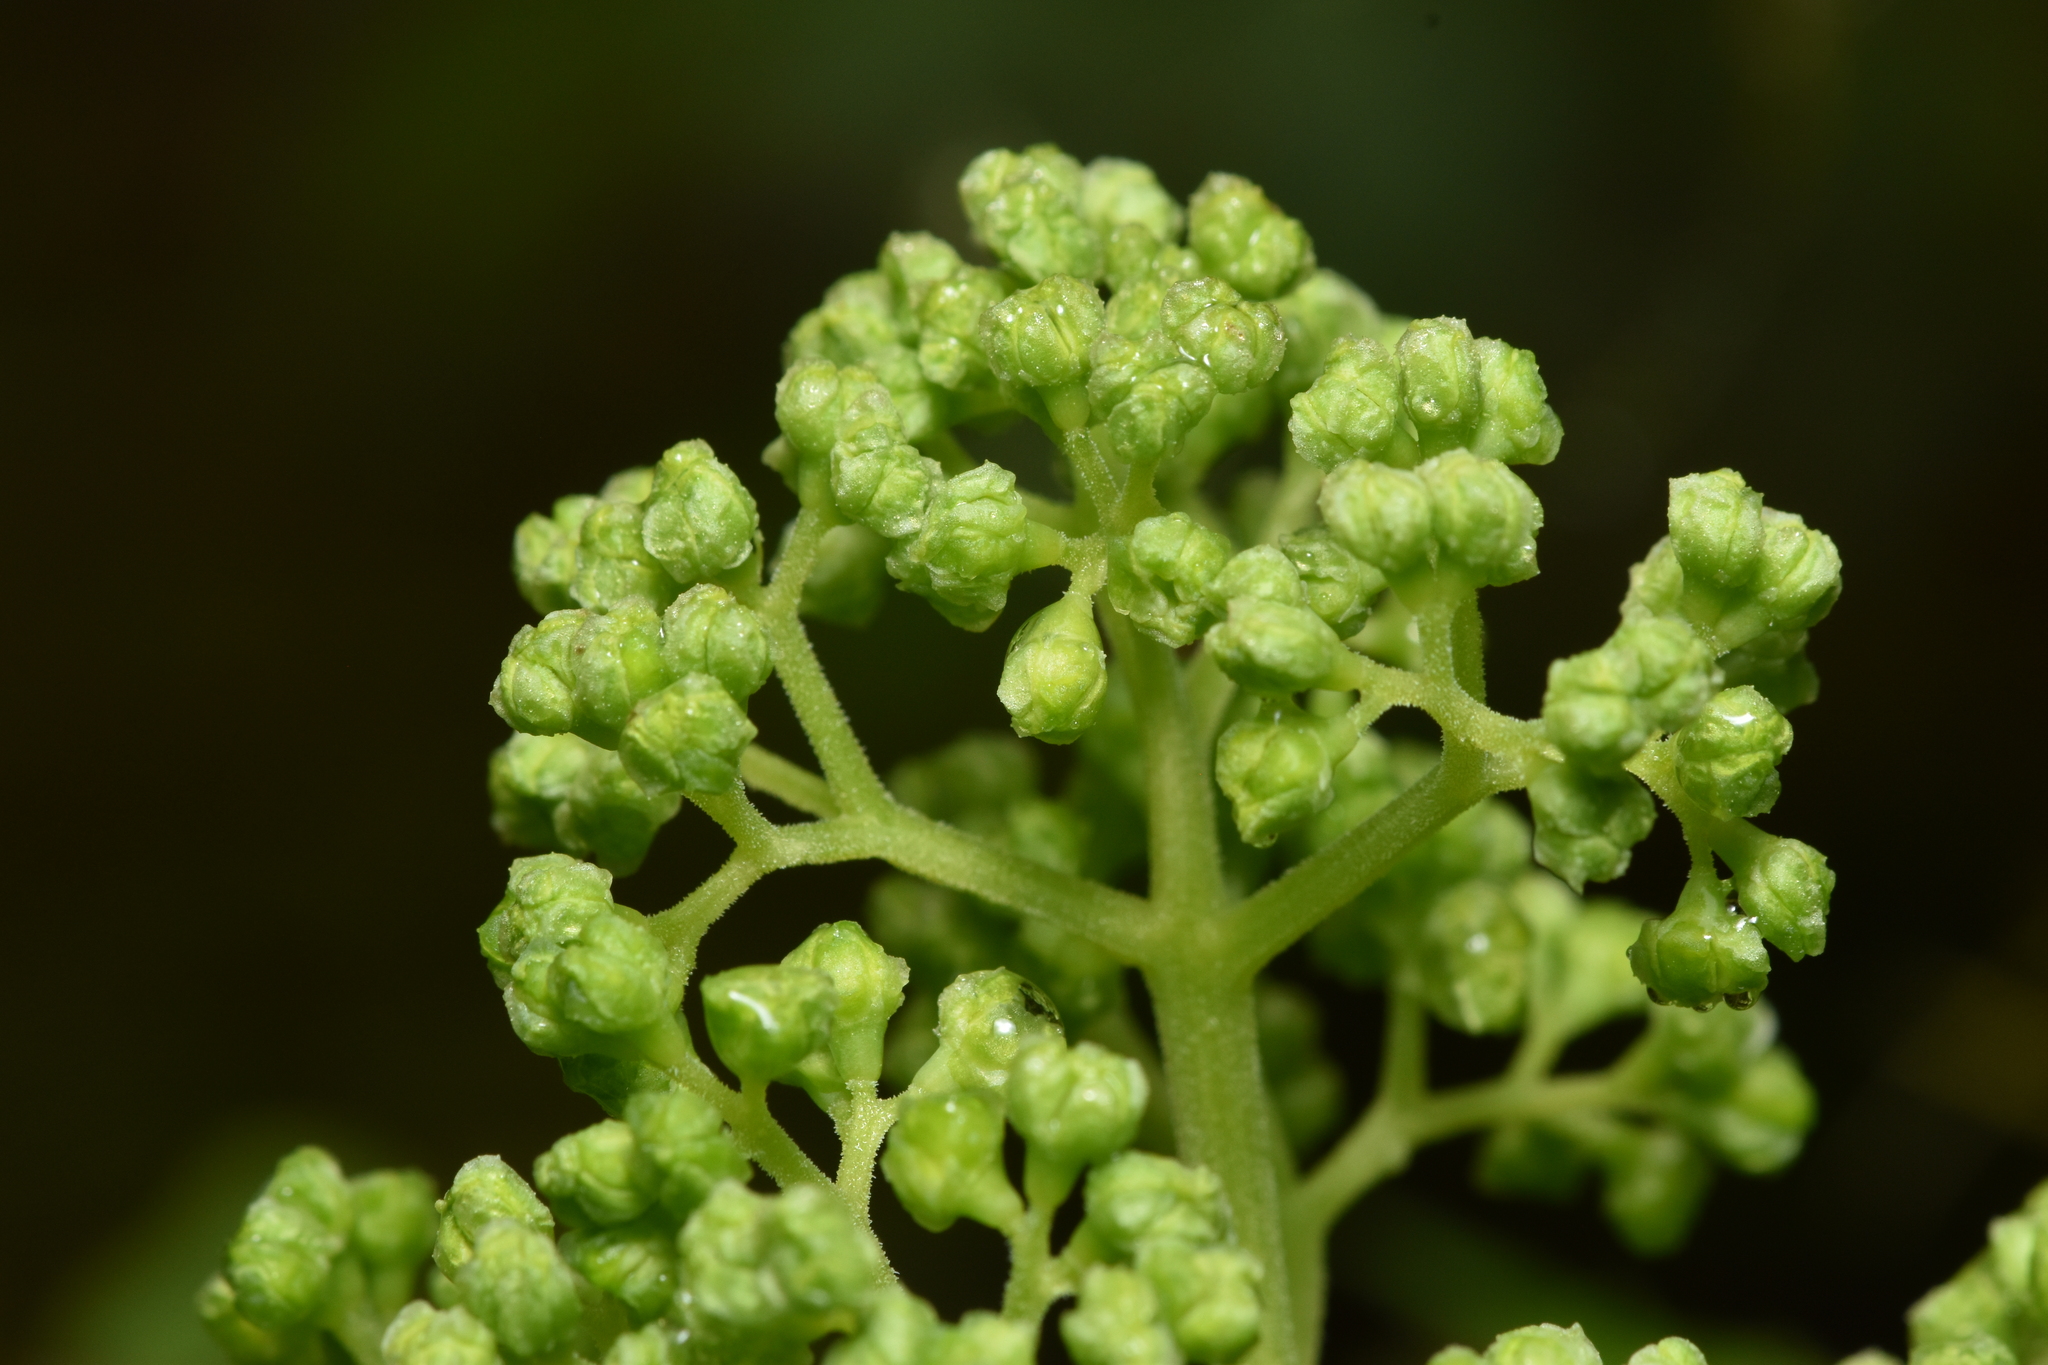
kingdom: Plantae
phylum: Tracheophyta
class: Magnoliopsida
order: Dipsacales
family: Viburnaceae
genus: Sambucus
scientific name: Sambucus racemosa
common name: Red-berried elder
